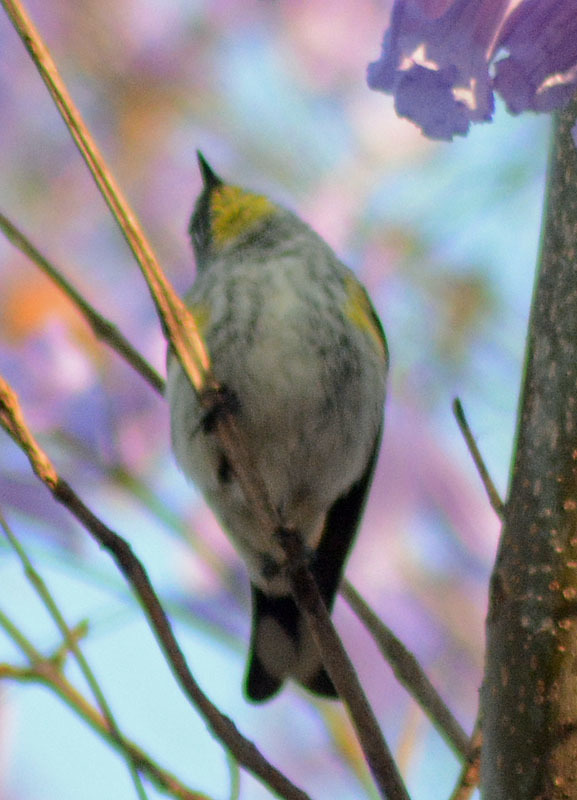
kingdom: Animalia
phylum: Chordata
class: Aves
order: Passeriformes
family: Parulidae
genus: Setophaga
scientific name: Setophaga coronata
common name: Myrtle warbler
